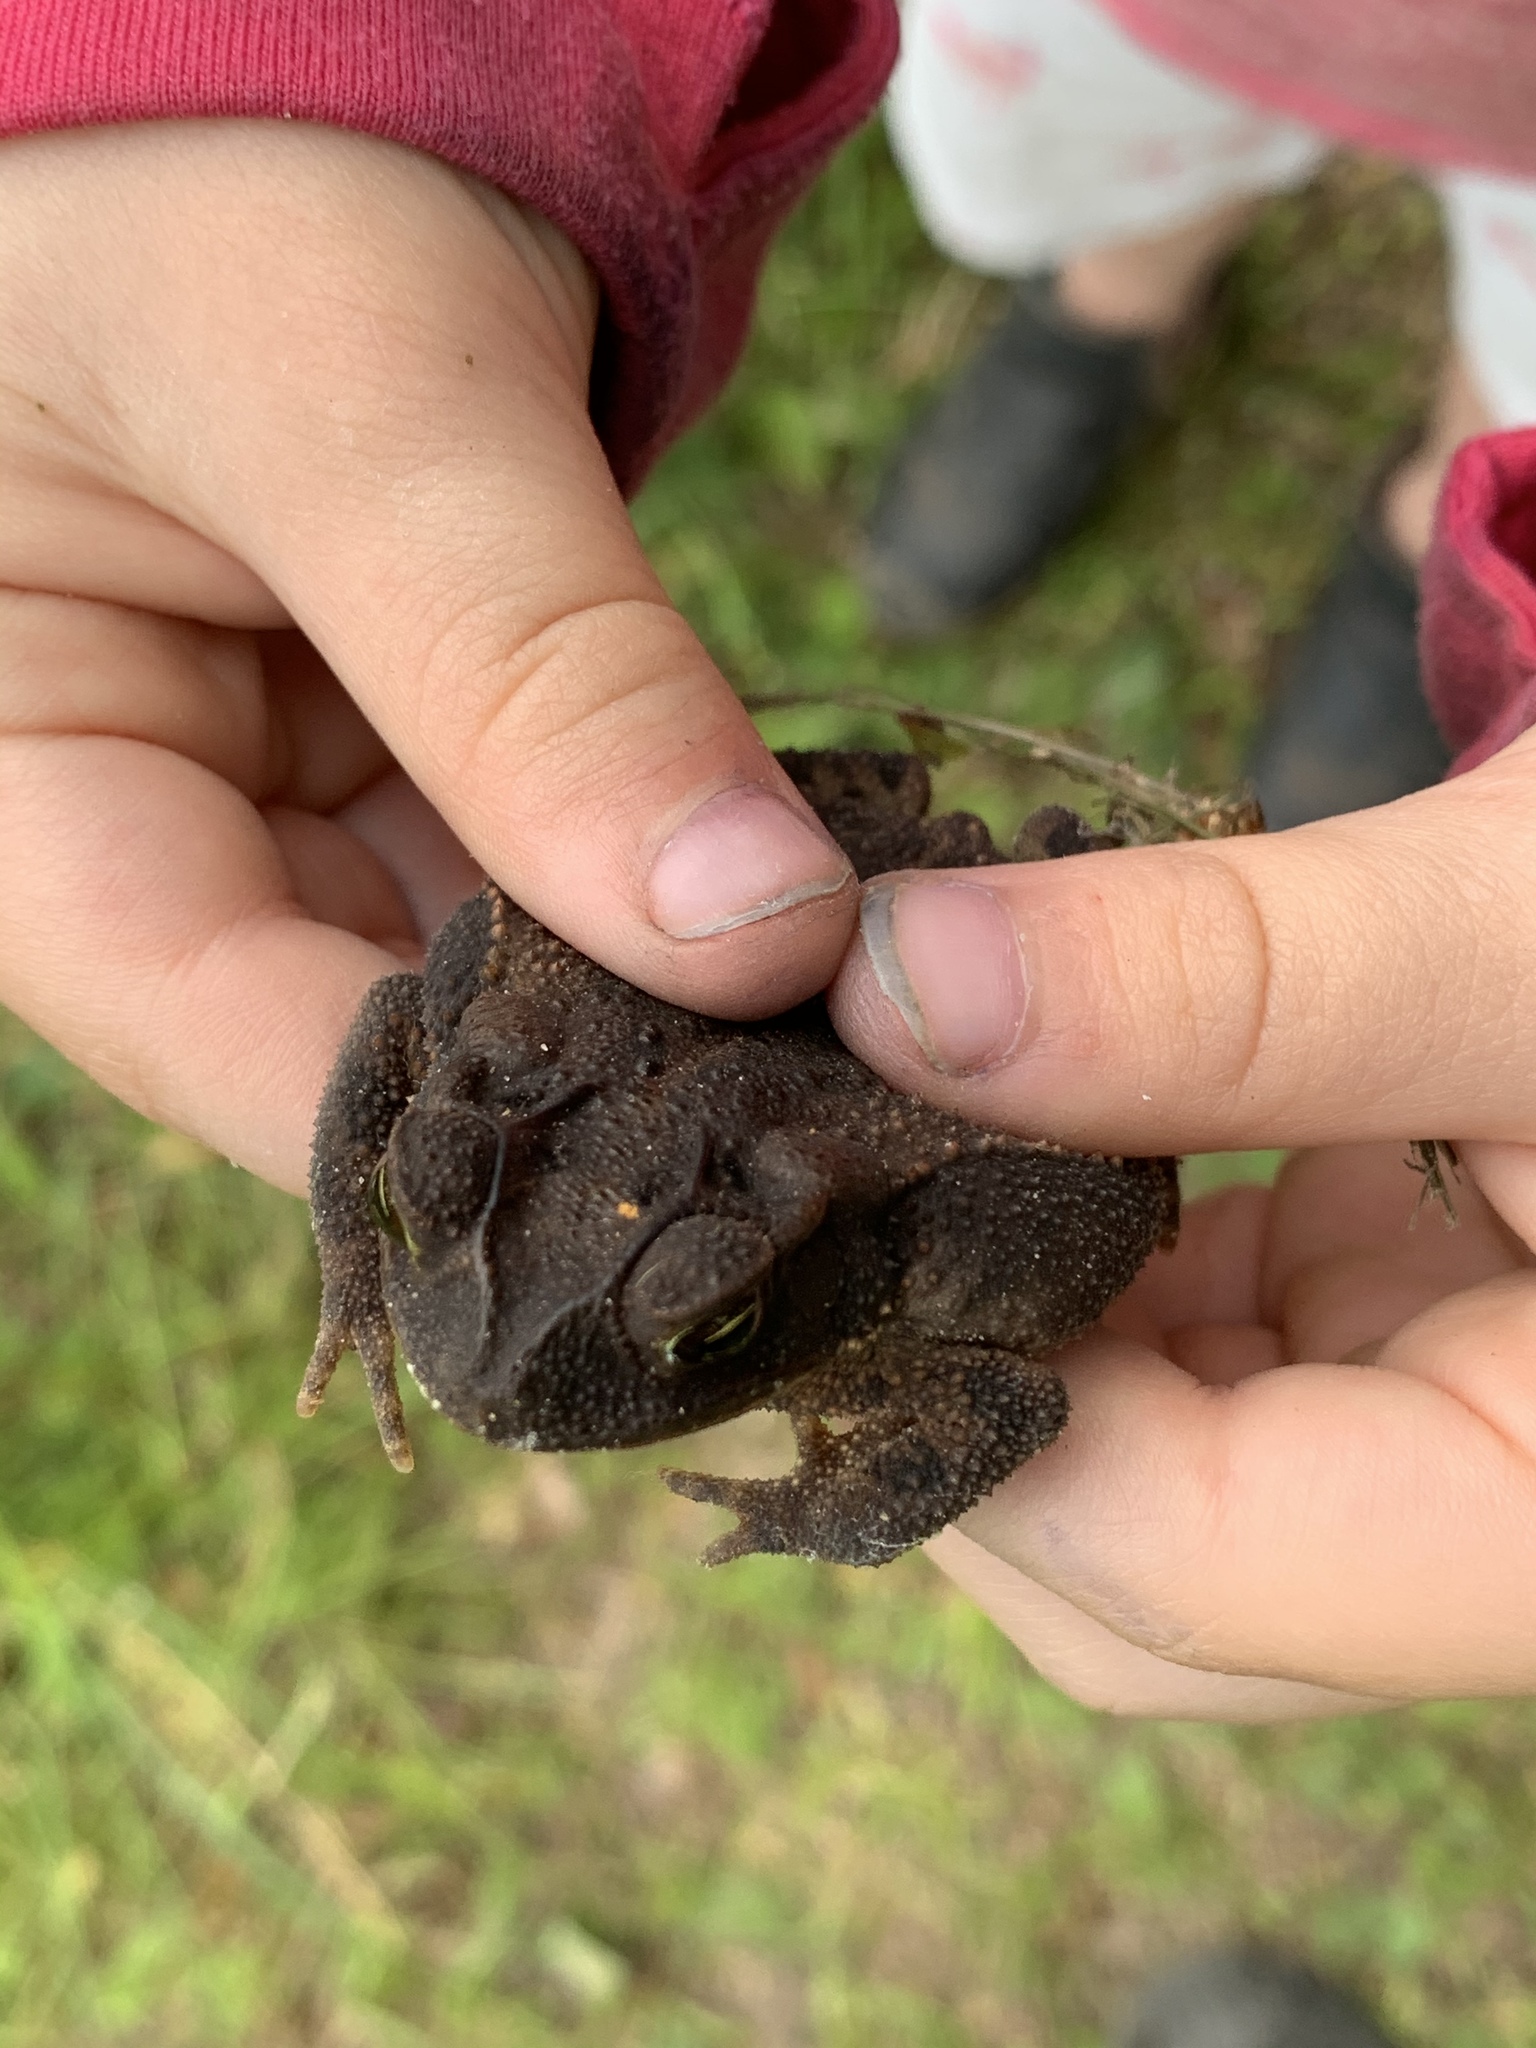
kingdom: Animalia
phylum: Chordata
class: Amphibia
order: Anura
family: Bufonidae
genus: Incilius
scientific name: Incilius nebulifer
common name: Gulf coast toad
